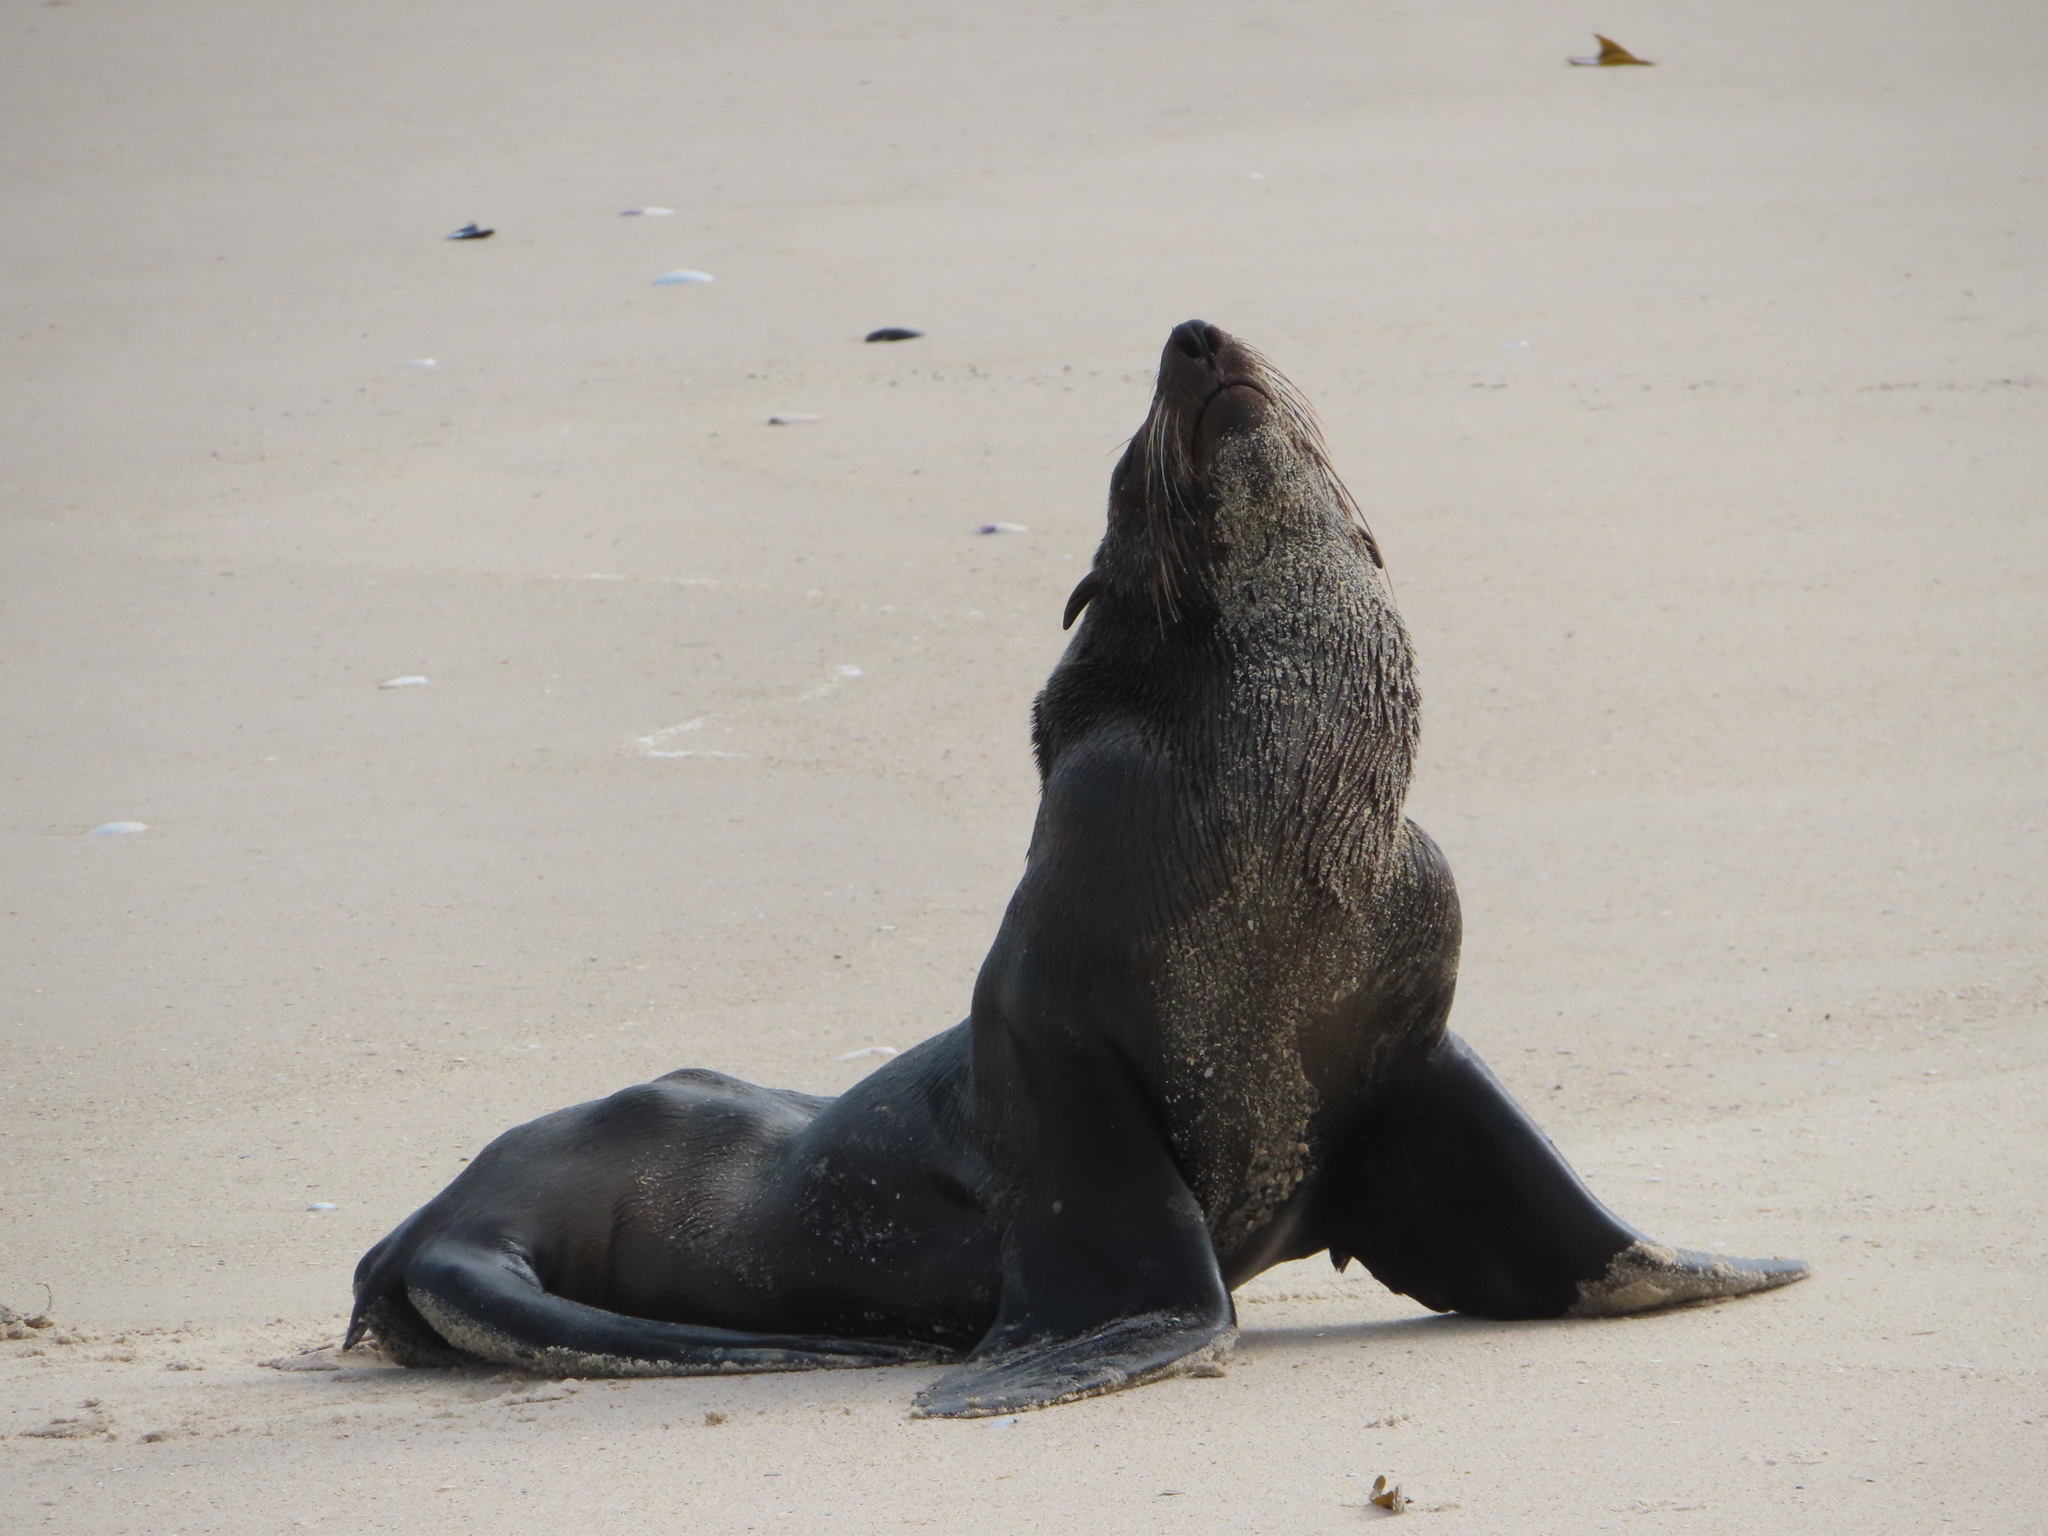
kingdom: Animalia
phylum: Chordata
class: Mammalia
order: Carnivora
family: Otariidae
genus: Arctocephalus
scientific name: Arctocephalus pusillus
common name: Brown fur seal
